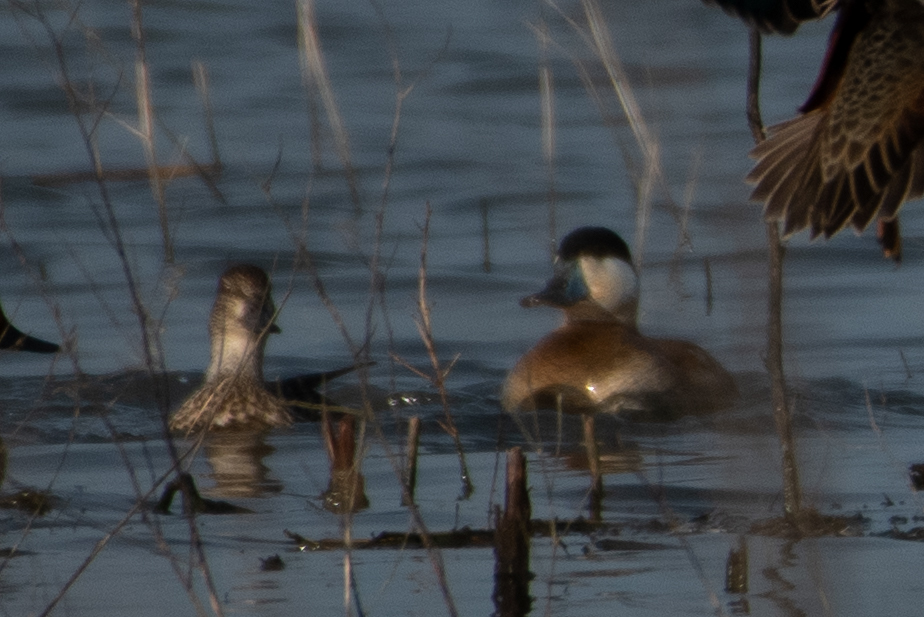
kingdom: Animalia
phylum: Chordata
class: Aves
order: Anseriformes
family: Anatidae
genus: Oxyura
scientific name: Oxyura jamaicensis
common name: Ruddy duck
